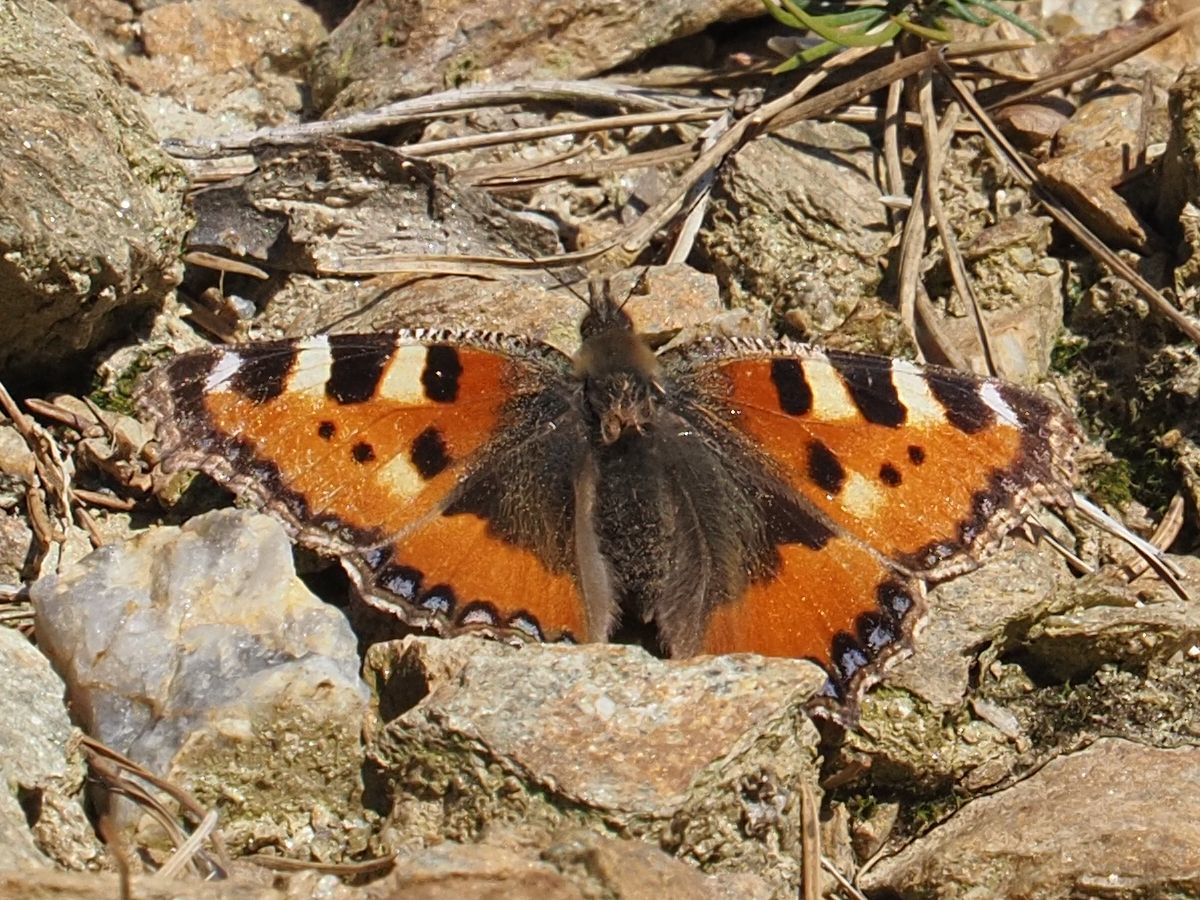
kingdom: Animalia
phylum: Arthropoda
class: Insecta
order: Lepidoptera
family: Nymphalidae
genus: Aglais
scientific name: Aglais urticae
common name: Small tortoiseshell
